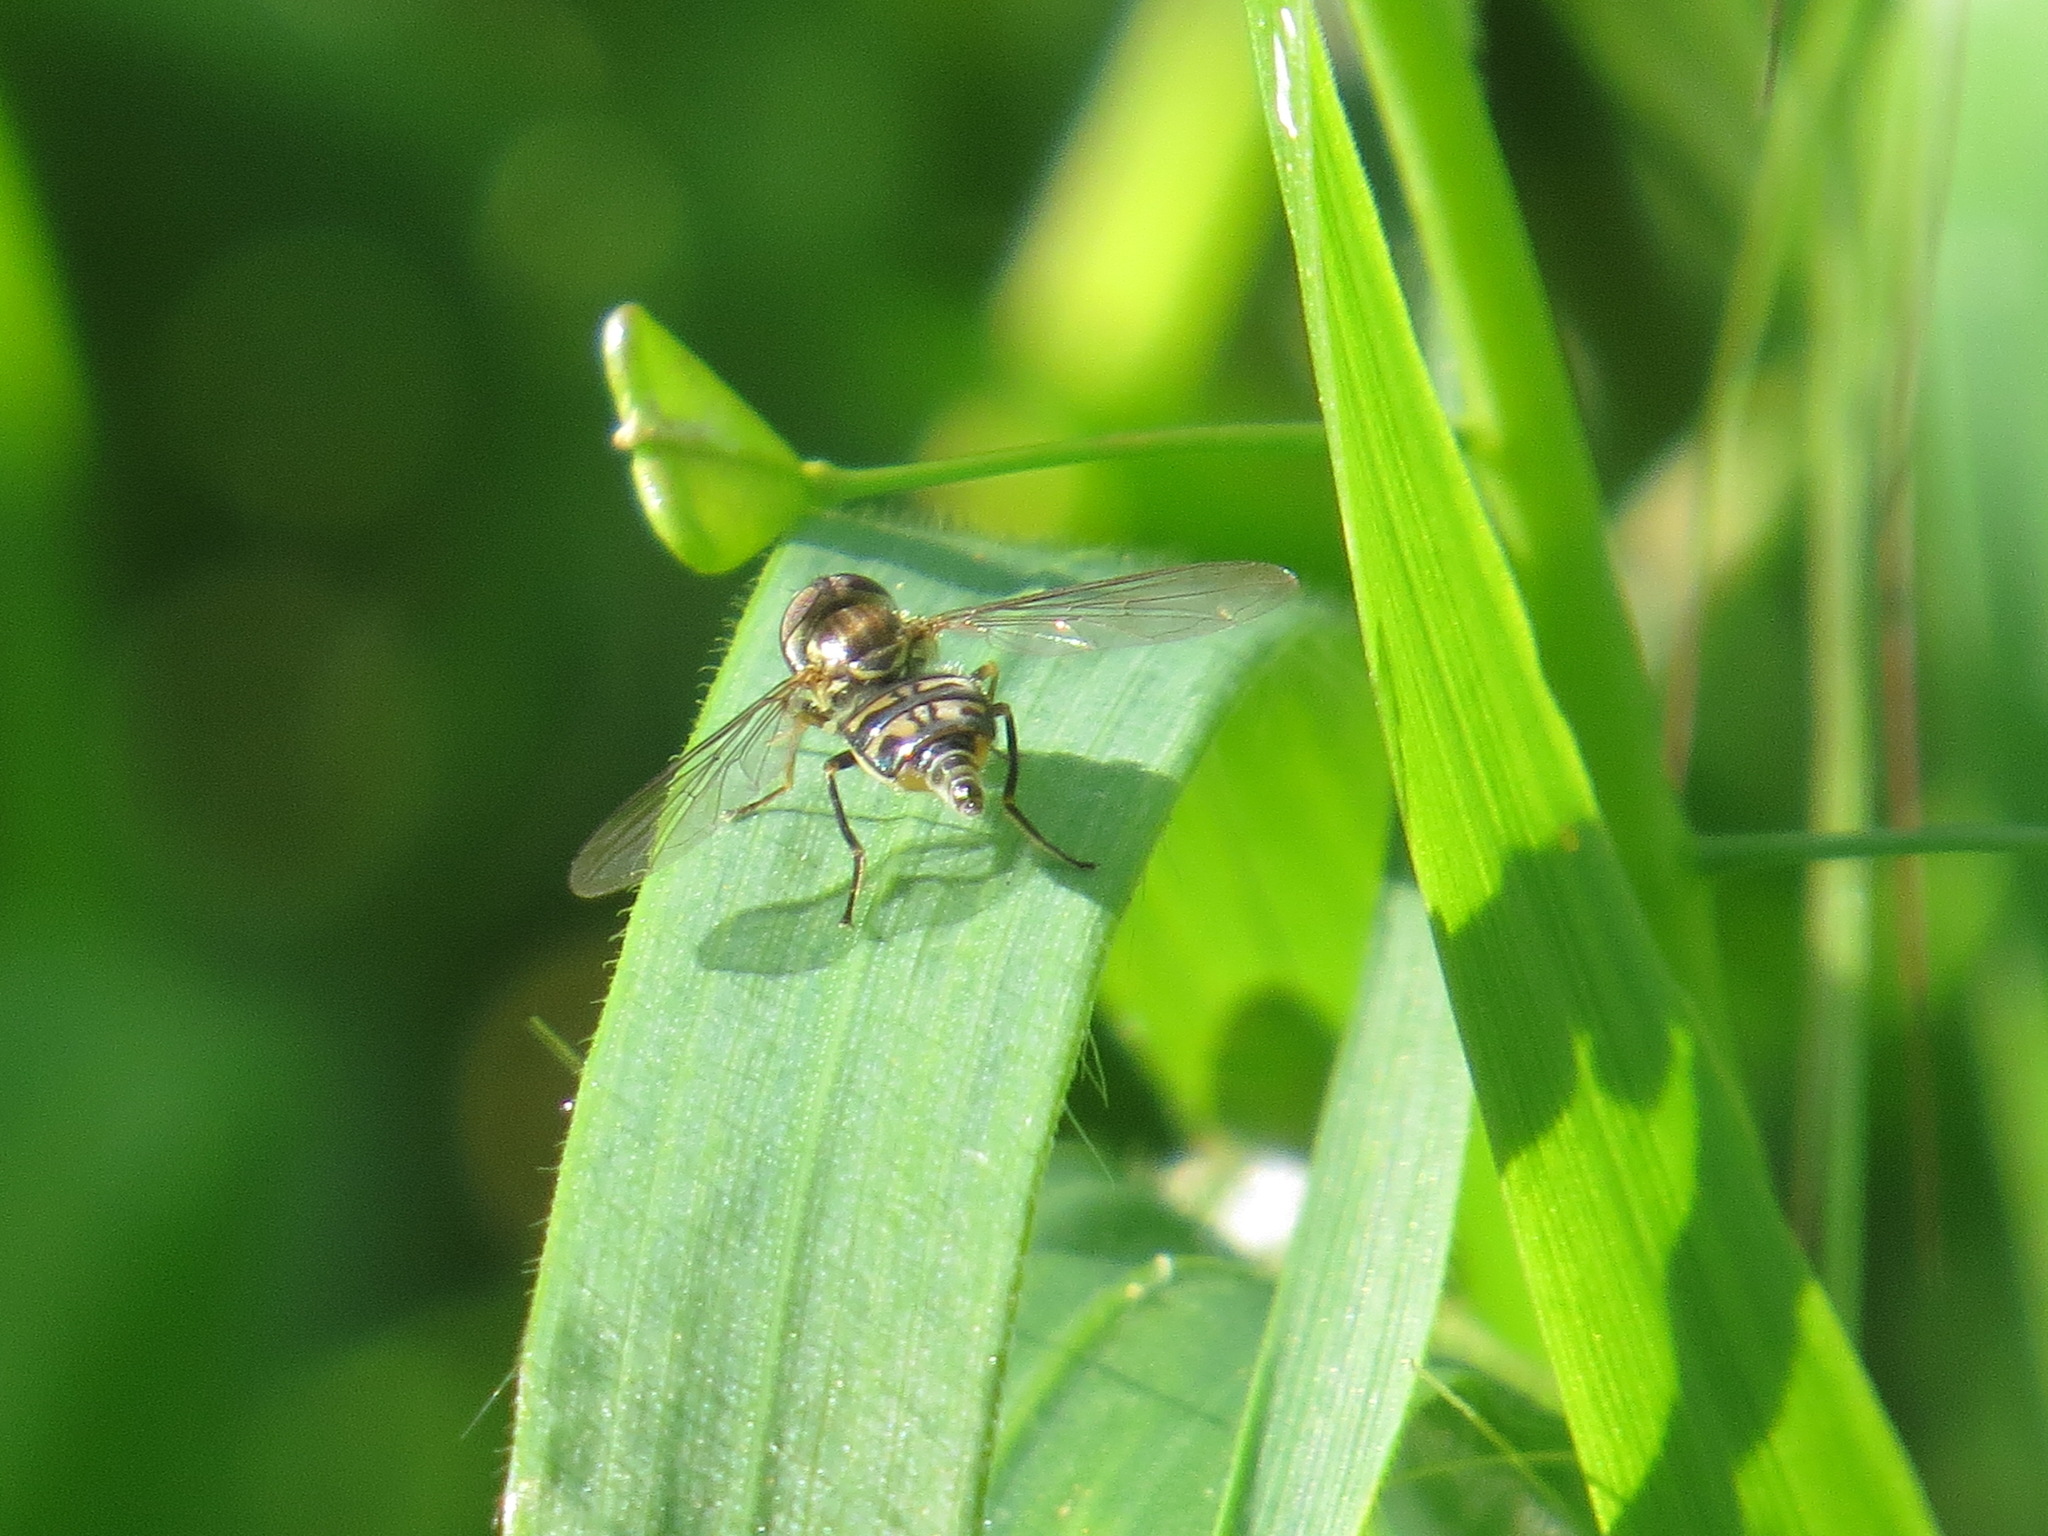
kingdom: Animalia
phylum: Arthropoda
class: Insecta
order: Diptera
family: Syrphidae
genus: Toxomerus
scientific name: Toxomerus occidentalis
